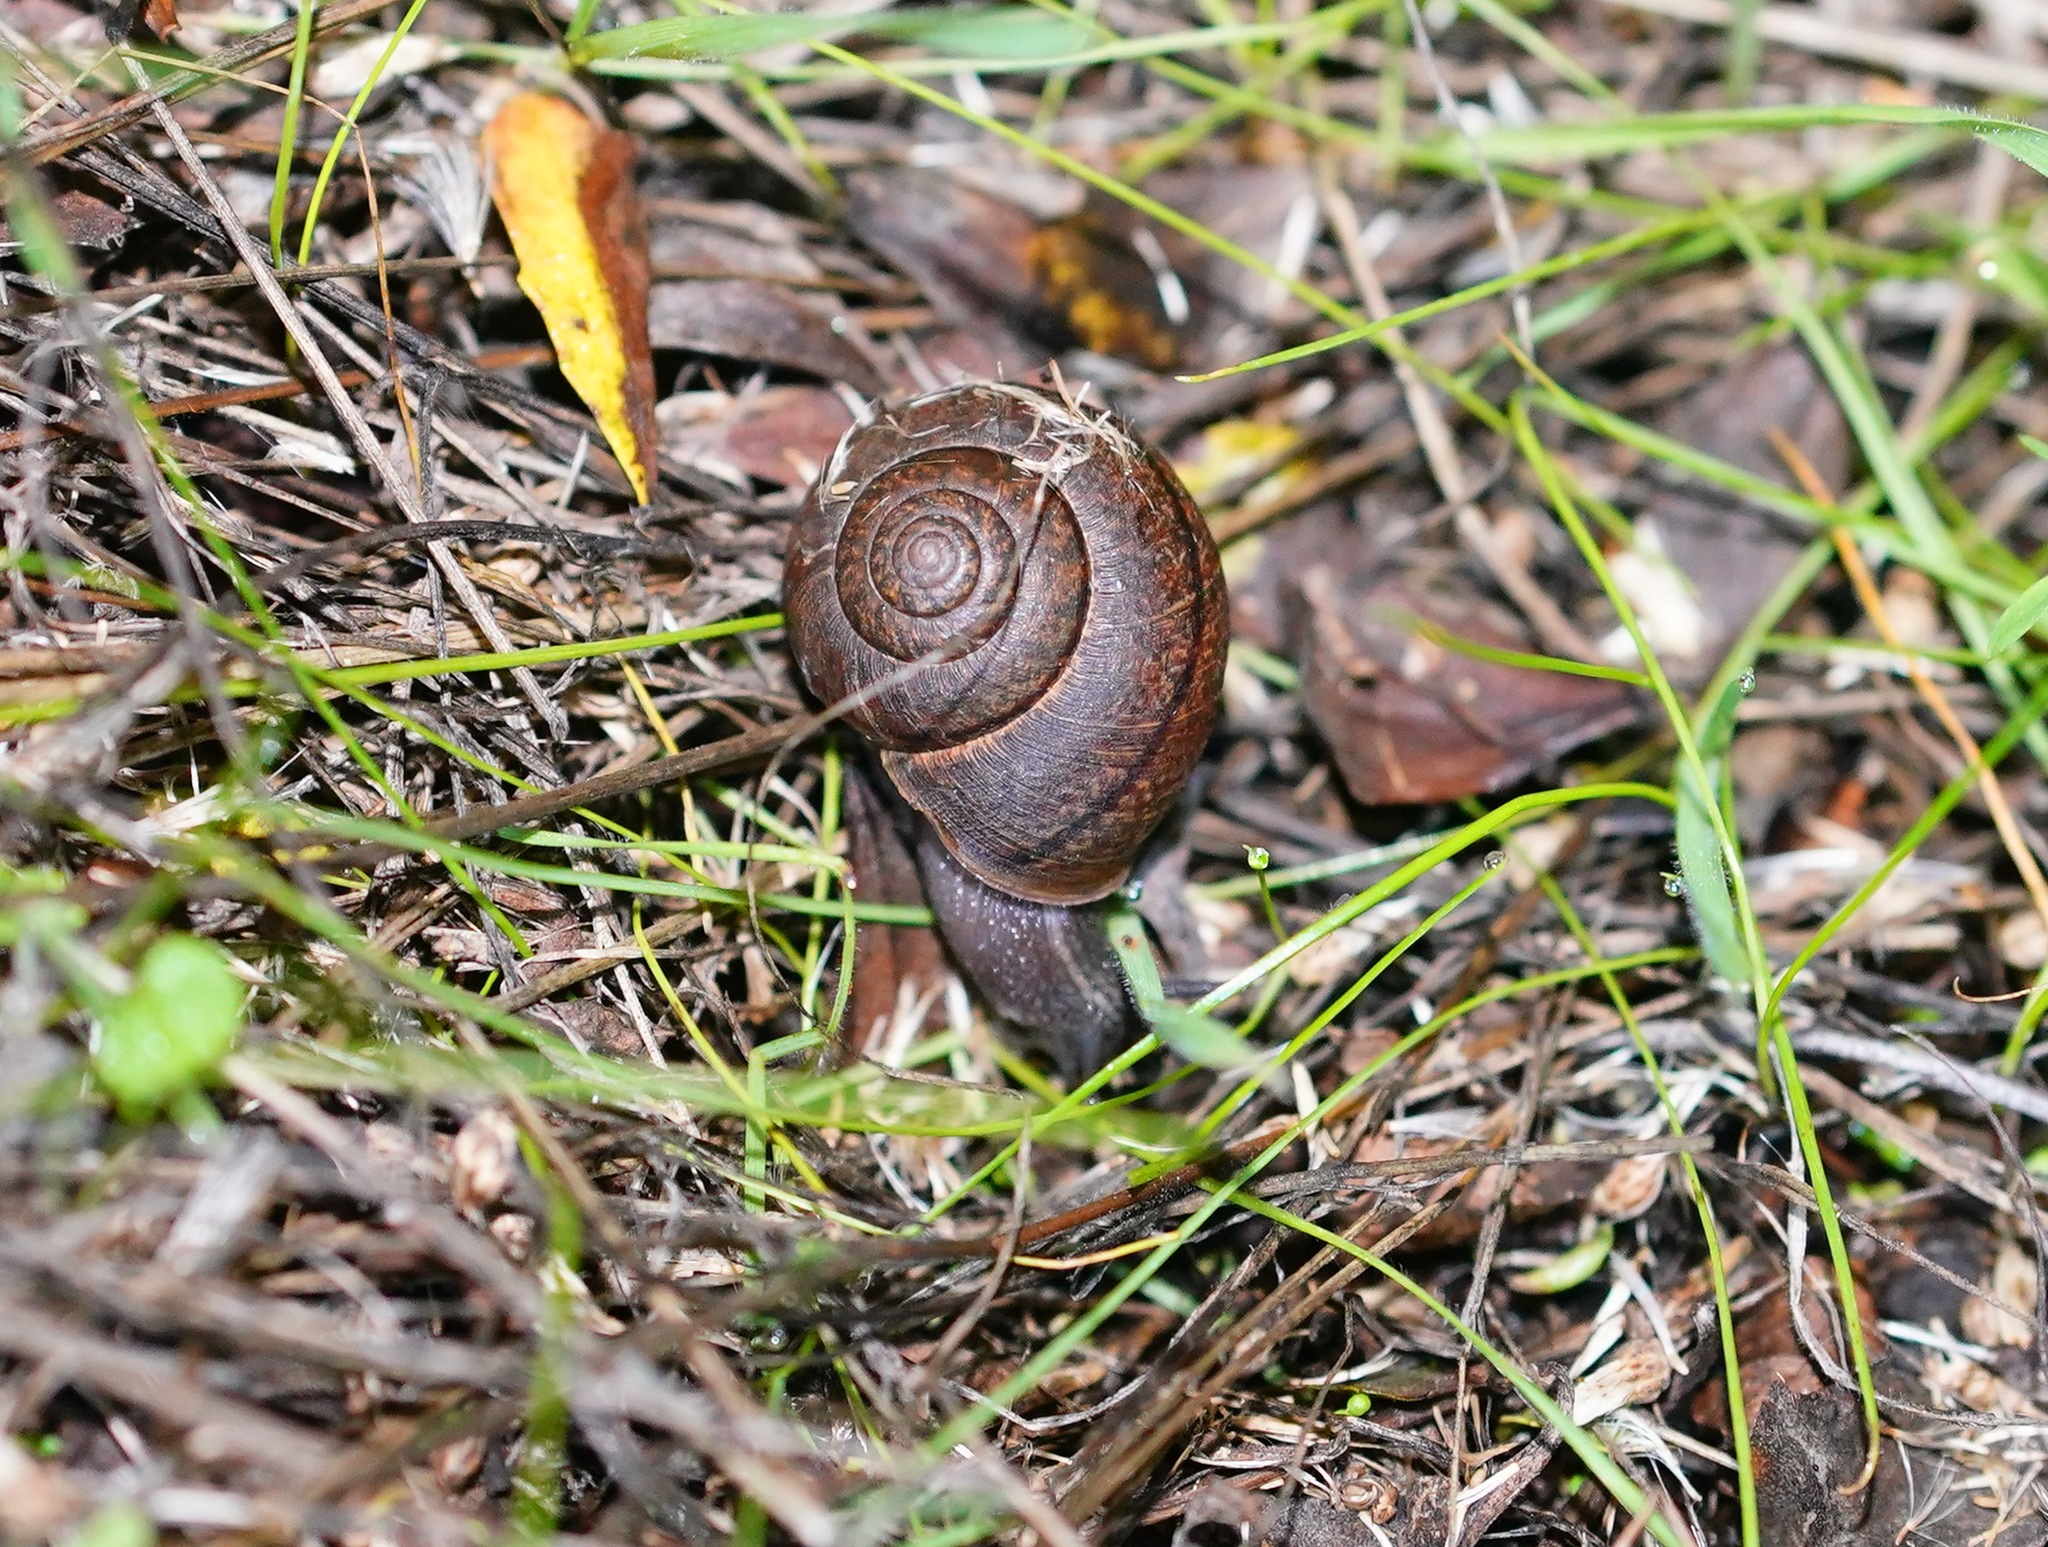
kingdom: Animalia
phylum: Mollusca
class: Gastropoda
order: Stylommatophora
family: Xanthonychidae
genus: Helminthoglypta
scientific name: Helminthoglypta arrosa
